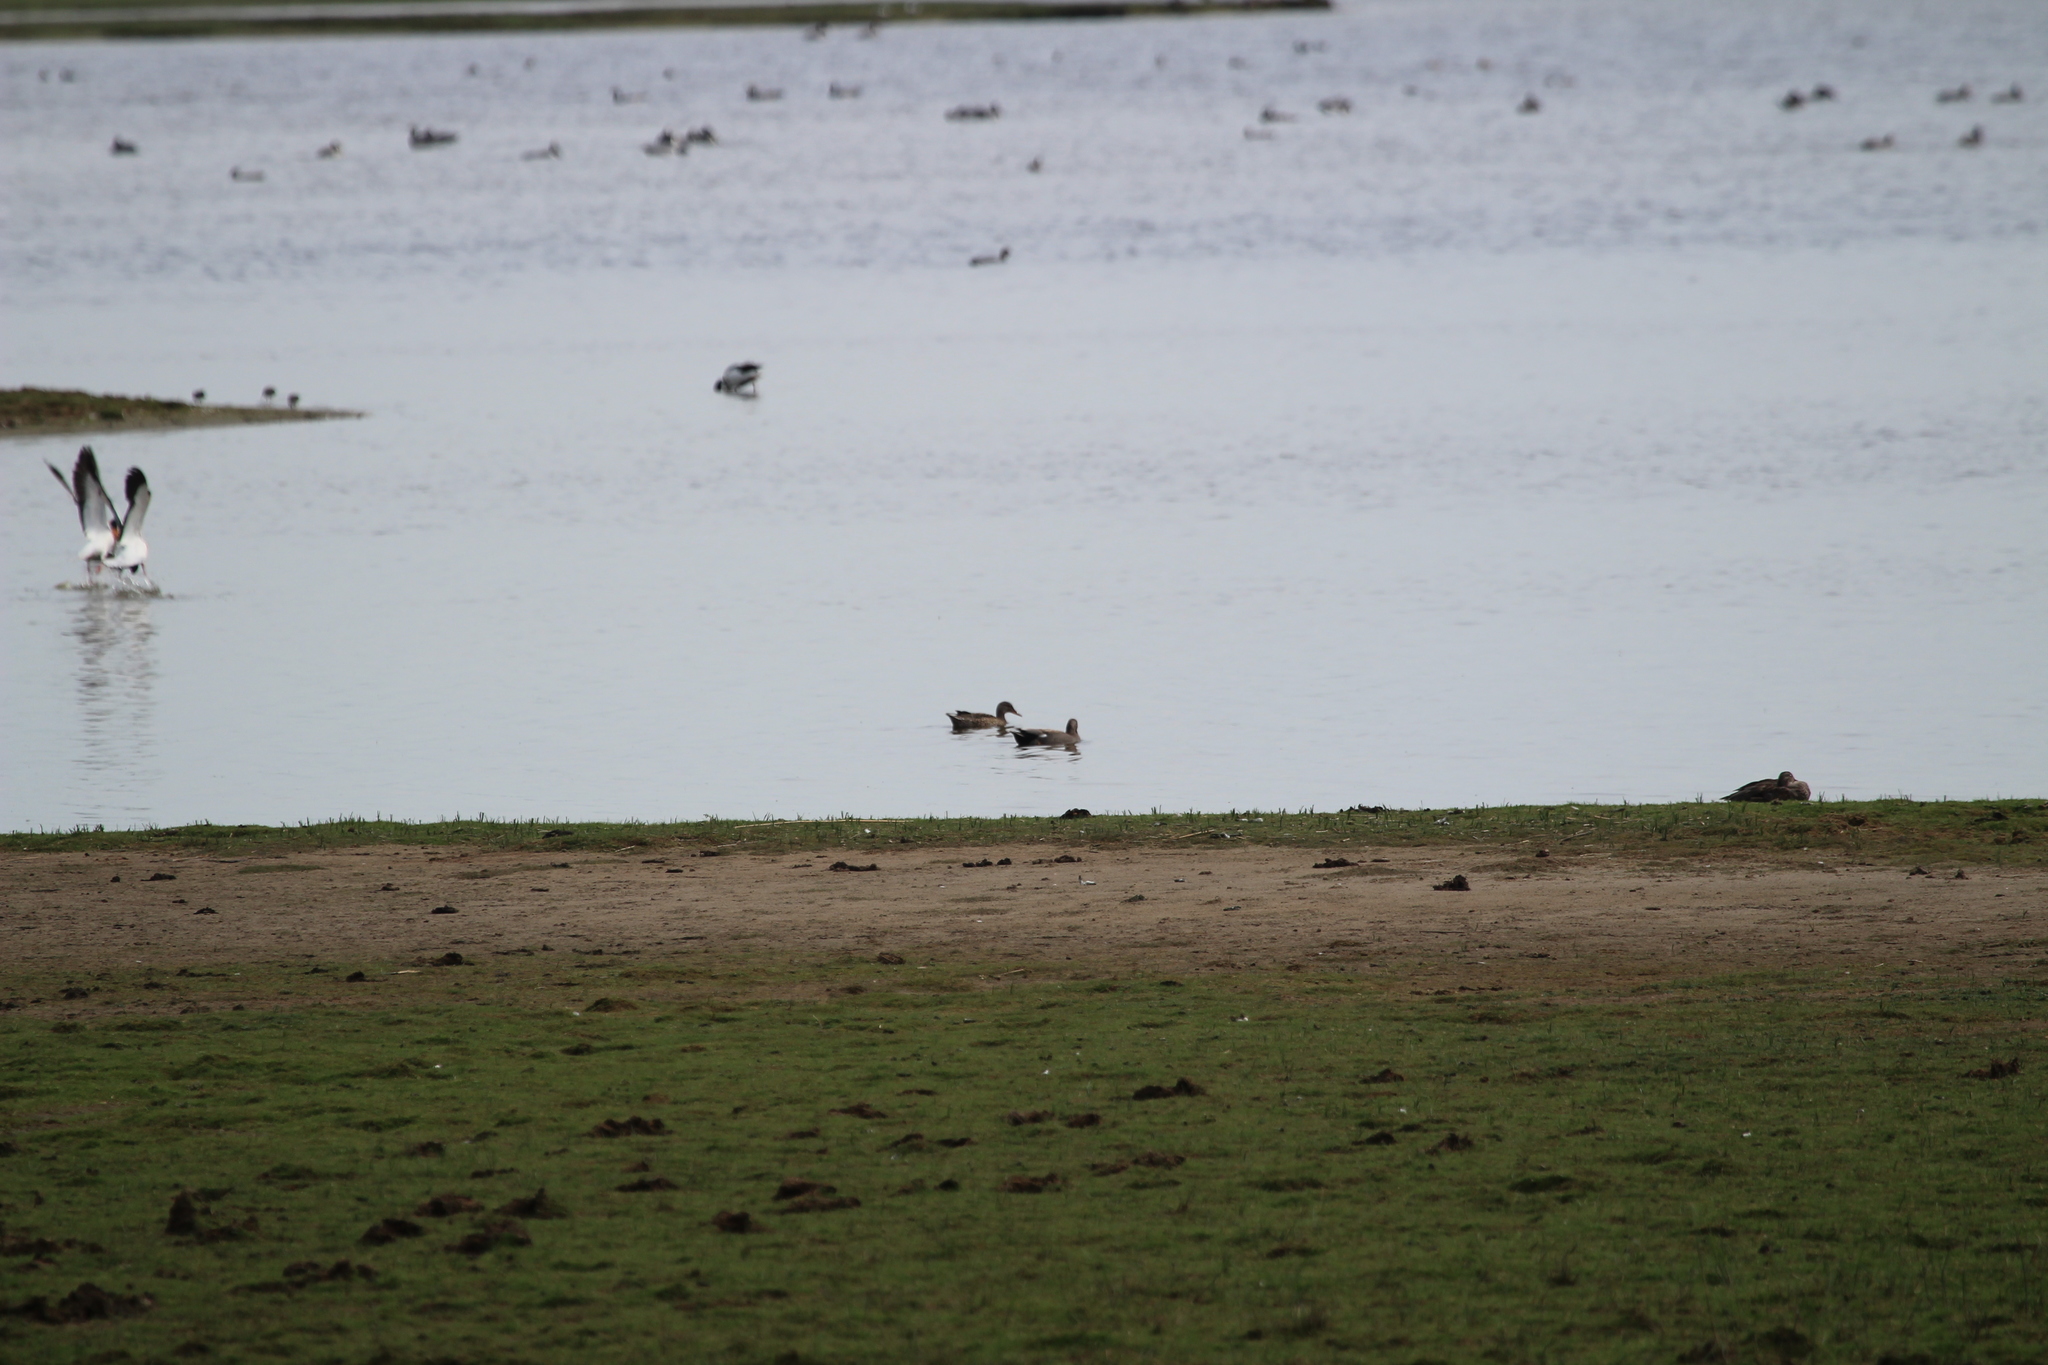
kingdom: Animalia
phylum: Chordata
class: Aves
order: Anseriformes
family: Anatidae
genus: Mareca
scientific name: Mareca strepera
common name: Gadwall
